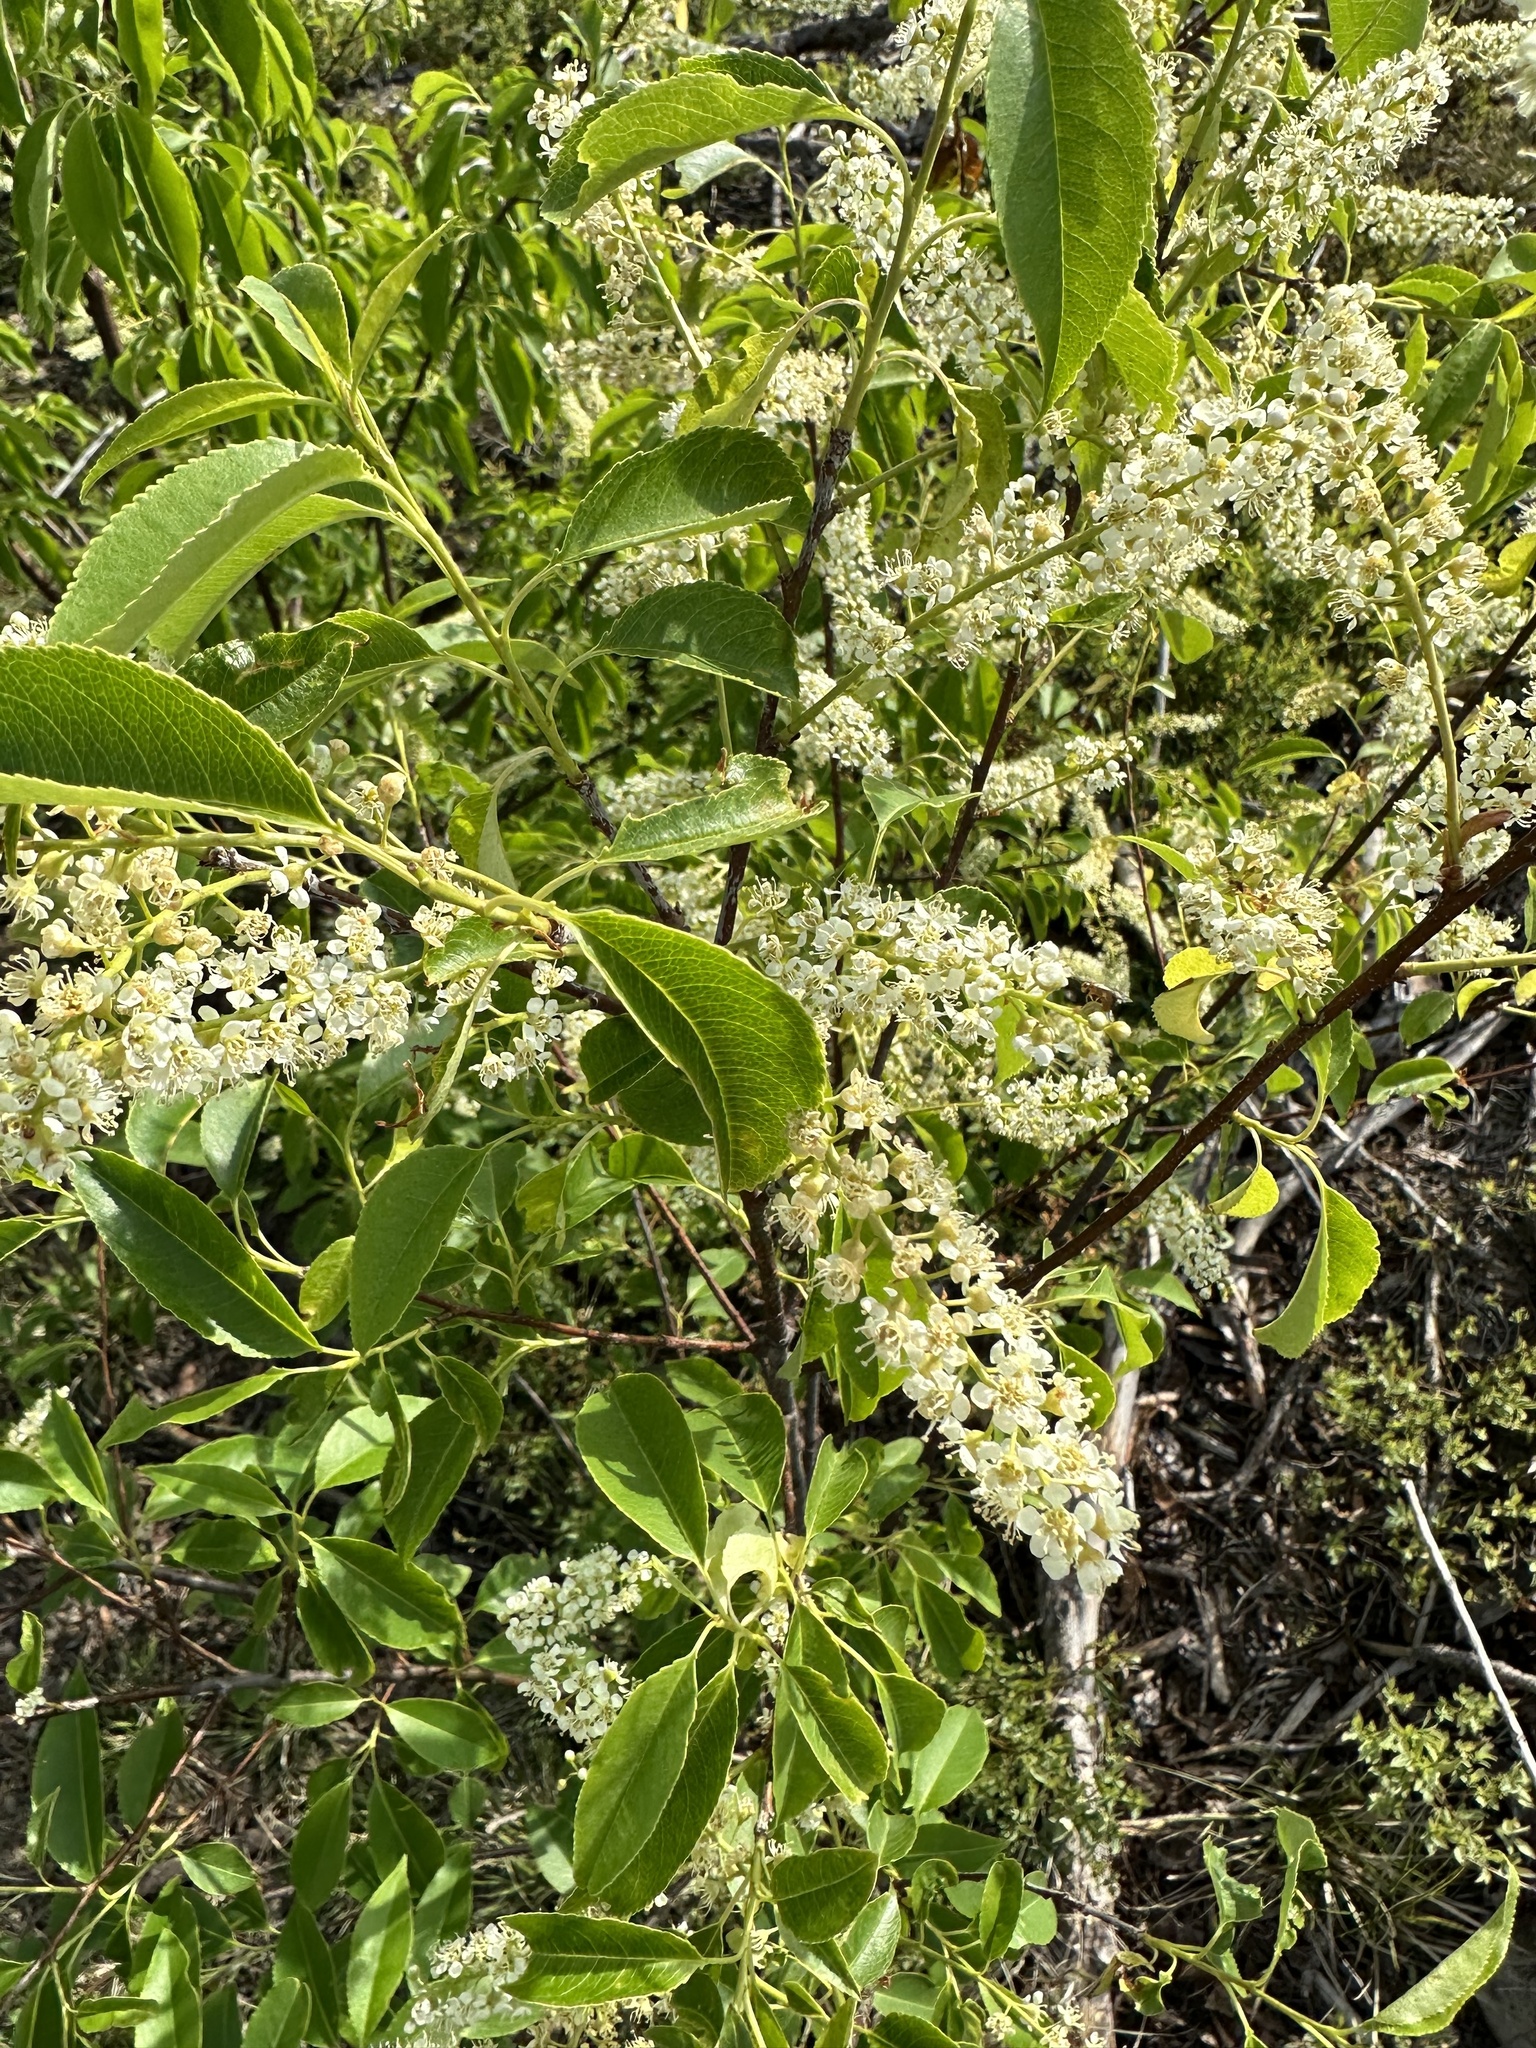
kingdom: Plantae
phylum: Tracheophyta
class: Magnoliopsida
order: Rosales
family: Rosaceae
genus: Prunus
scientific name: Prunus serotina
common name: Black cherry
